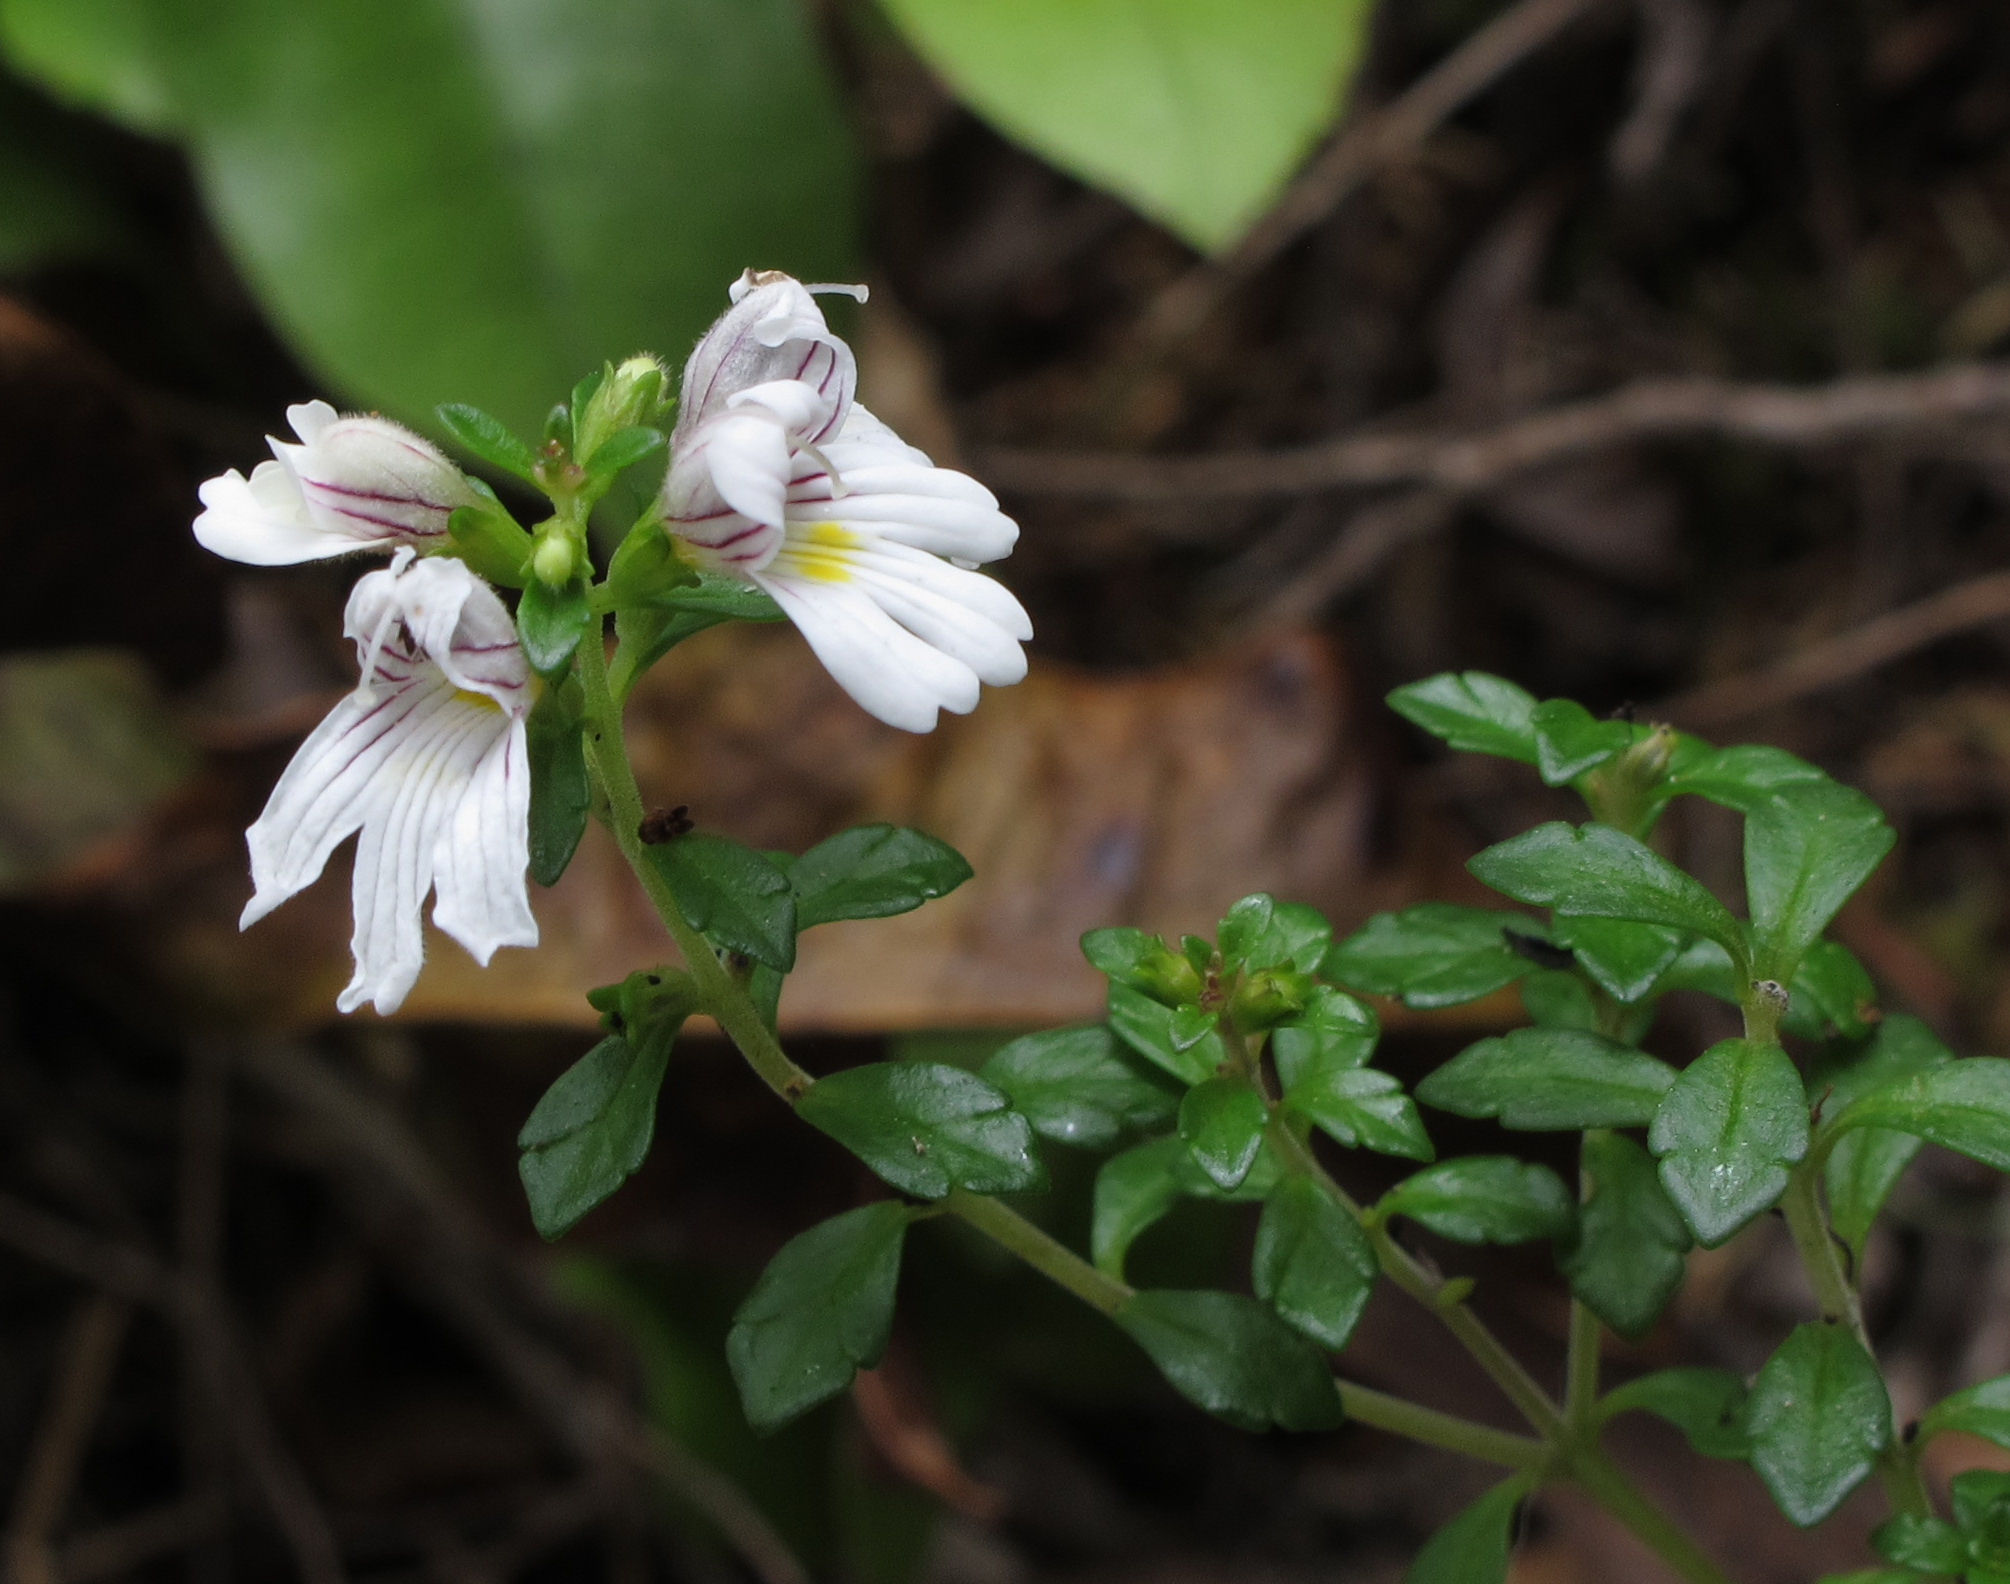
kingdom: Plantae
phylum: Tracheophyta
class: Magnoliopsida
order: Lamiales
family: Orobanchaceae
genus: Euphrasia
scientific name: Euphrasia cuneata
